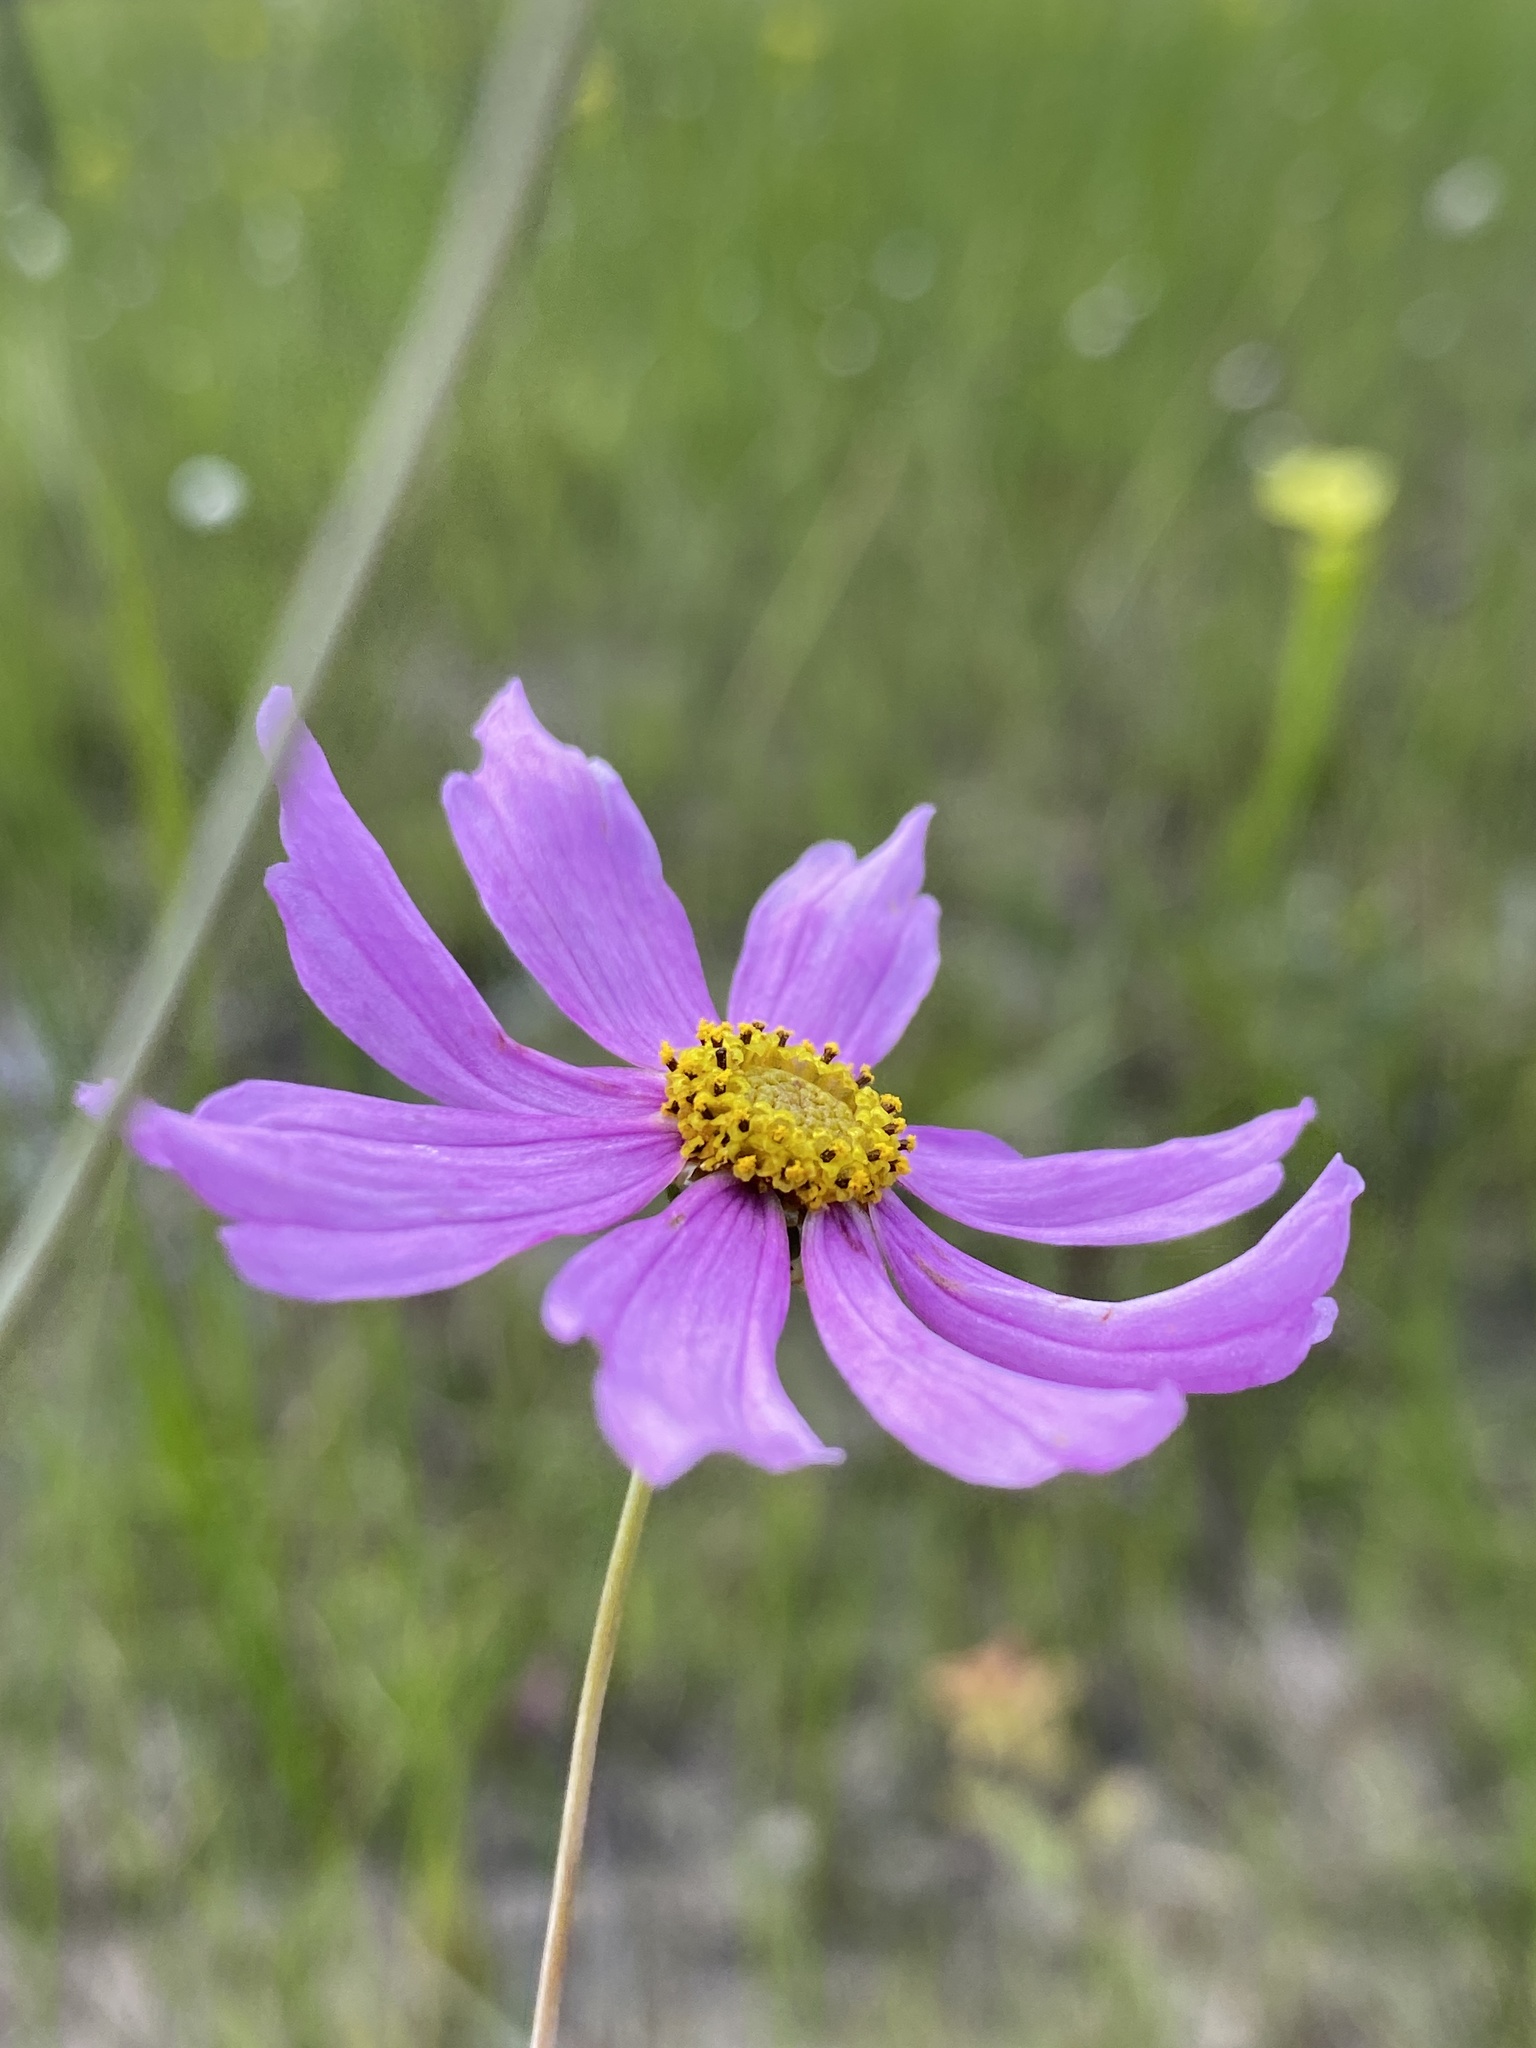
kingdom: Plantae
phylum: Tracheophyta
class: Magnoliopsida
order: Asterales
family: Asteraceae
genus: Coreopsis
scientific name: Coreopsis nudata
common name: Purple tickseed
